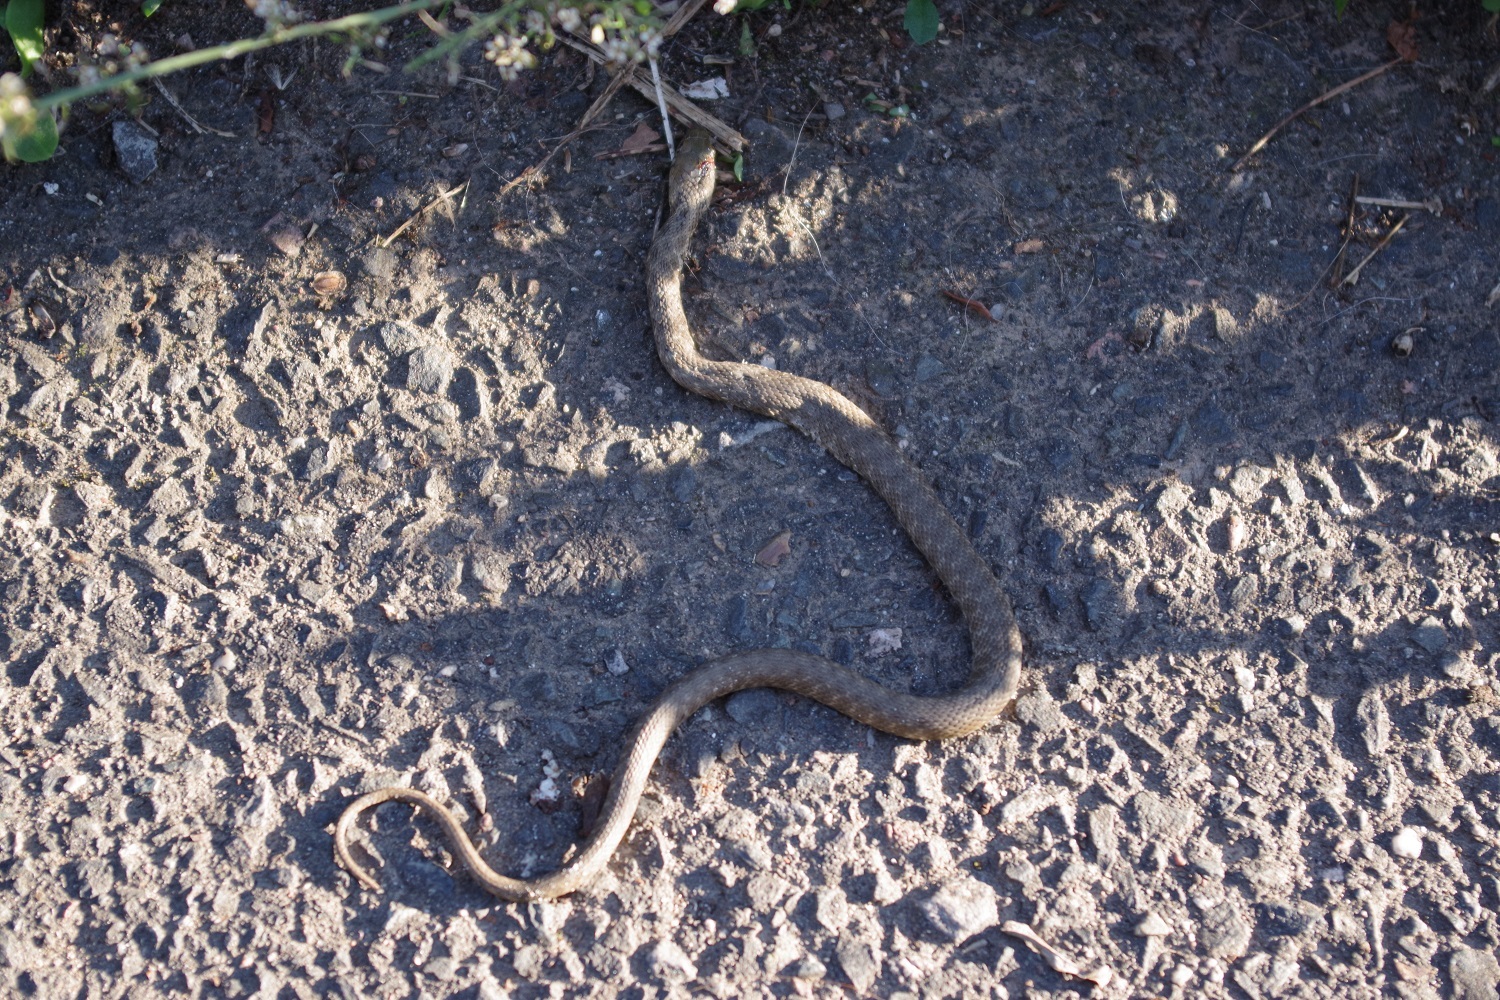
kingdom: Animalia
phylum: Chordata
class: Squamata
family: Colubridae
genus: Natrix
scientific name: Natrix tessellata
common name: Dice snake
